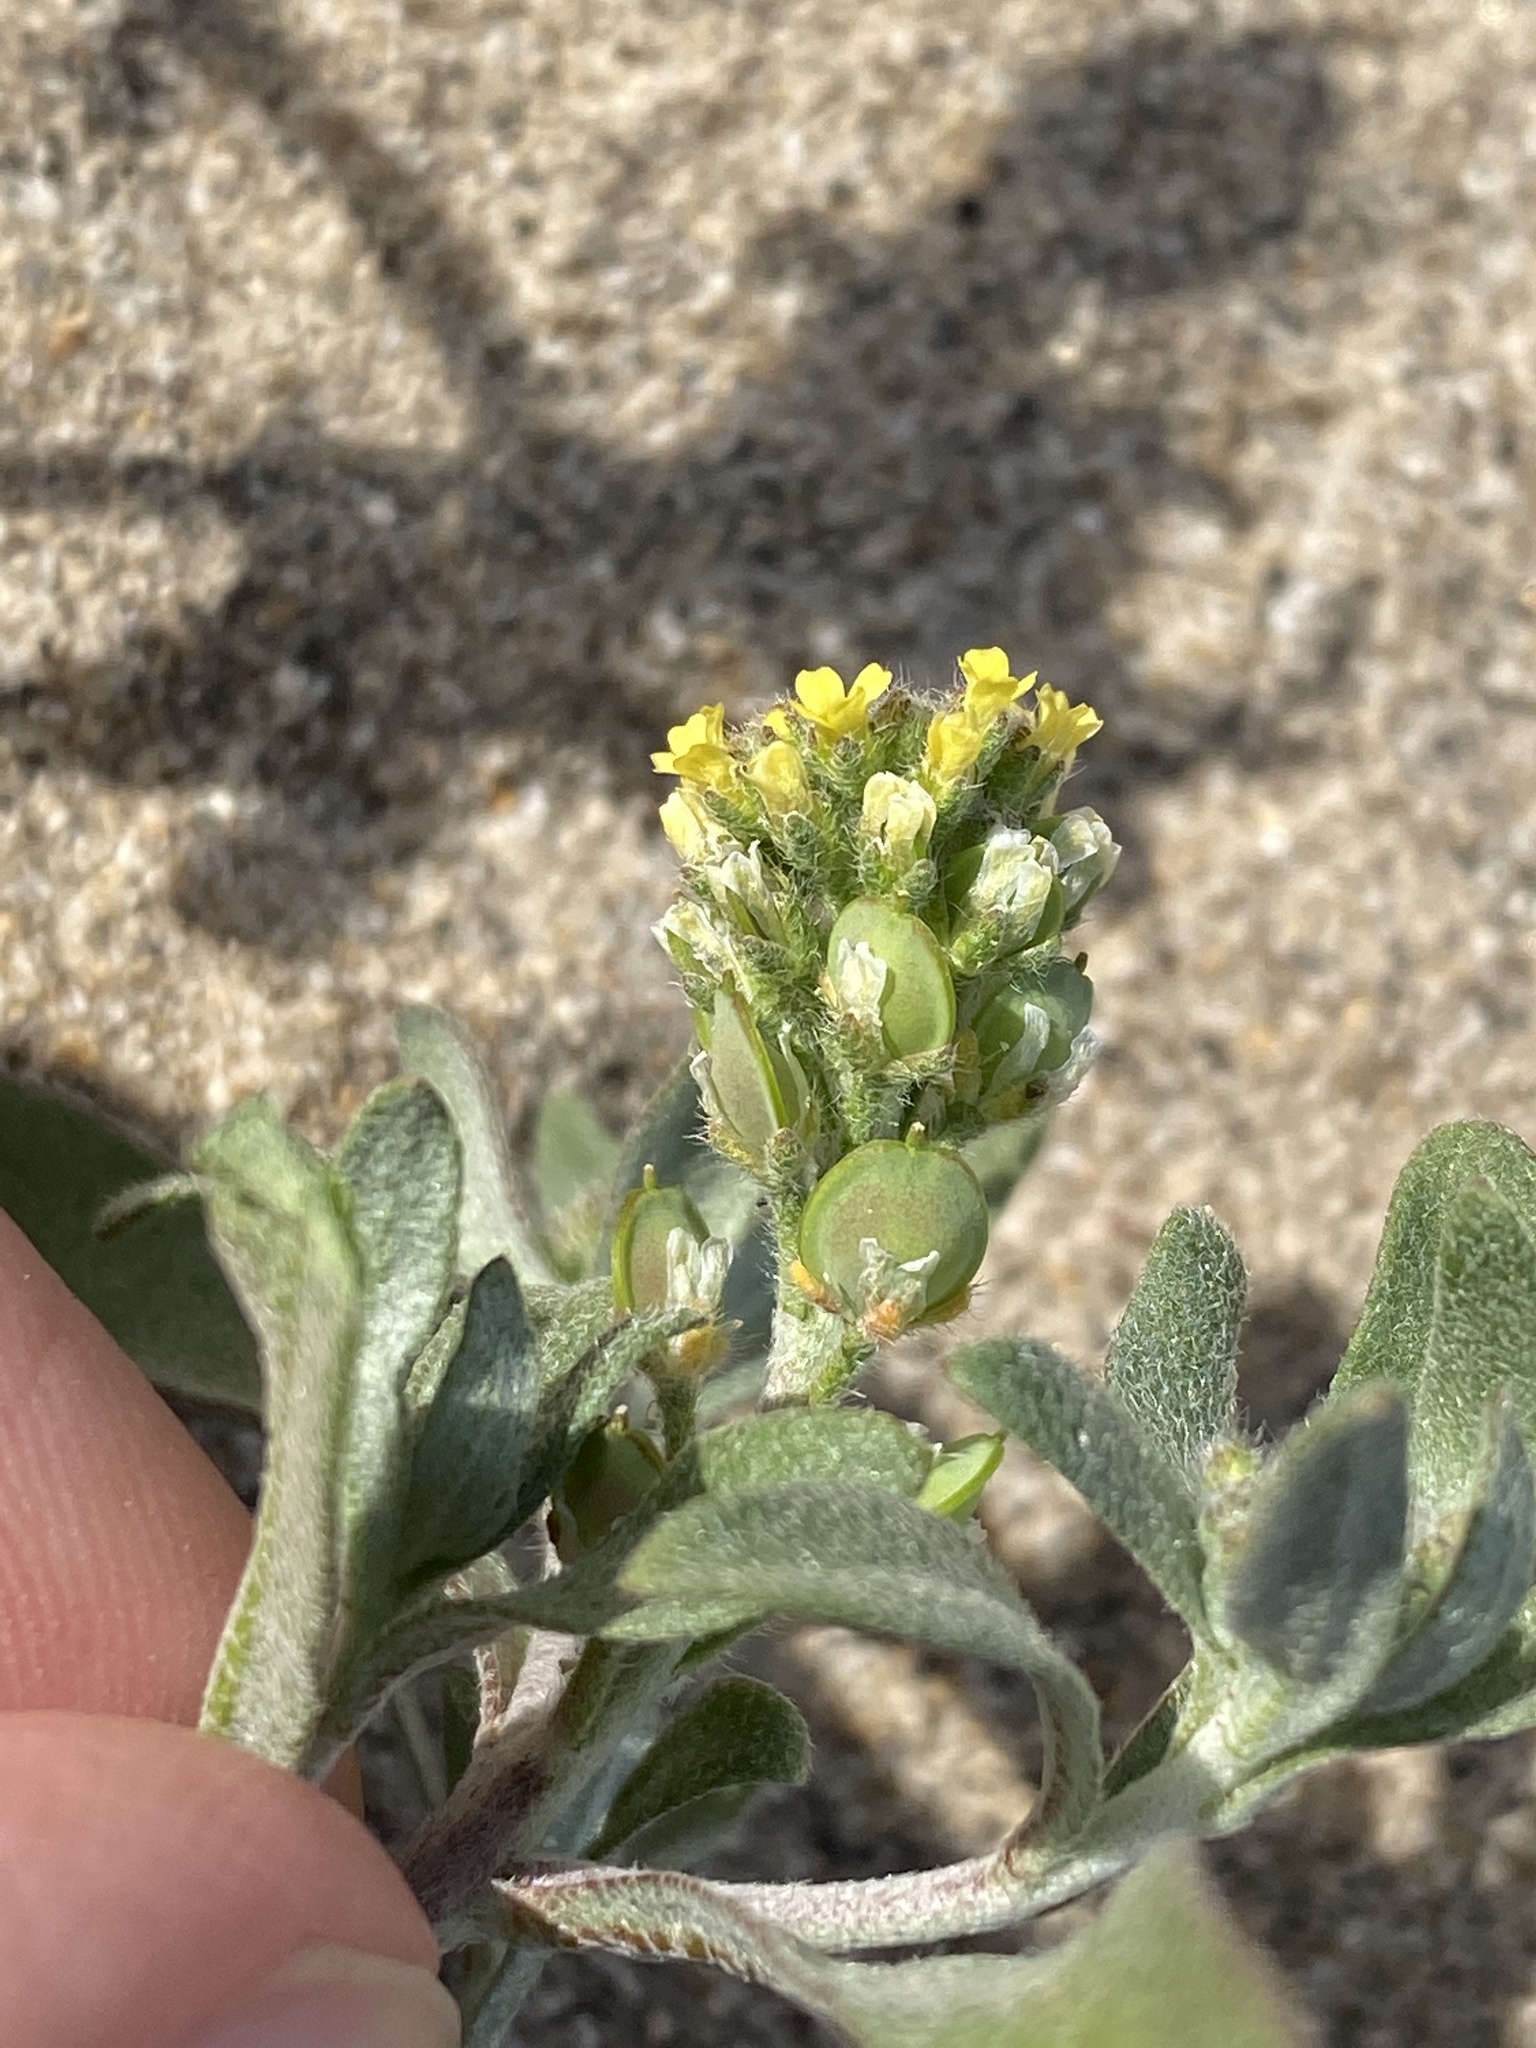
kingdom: Plantae
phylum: Tracheophyta
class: Magnoliopsida
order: Brassicales
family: Brassicaceae
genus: Alyssum
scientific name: Alyssum turkestanicum
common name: Desert alyssum
